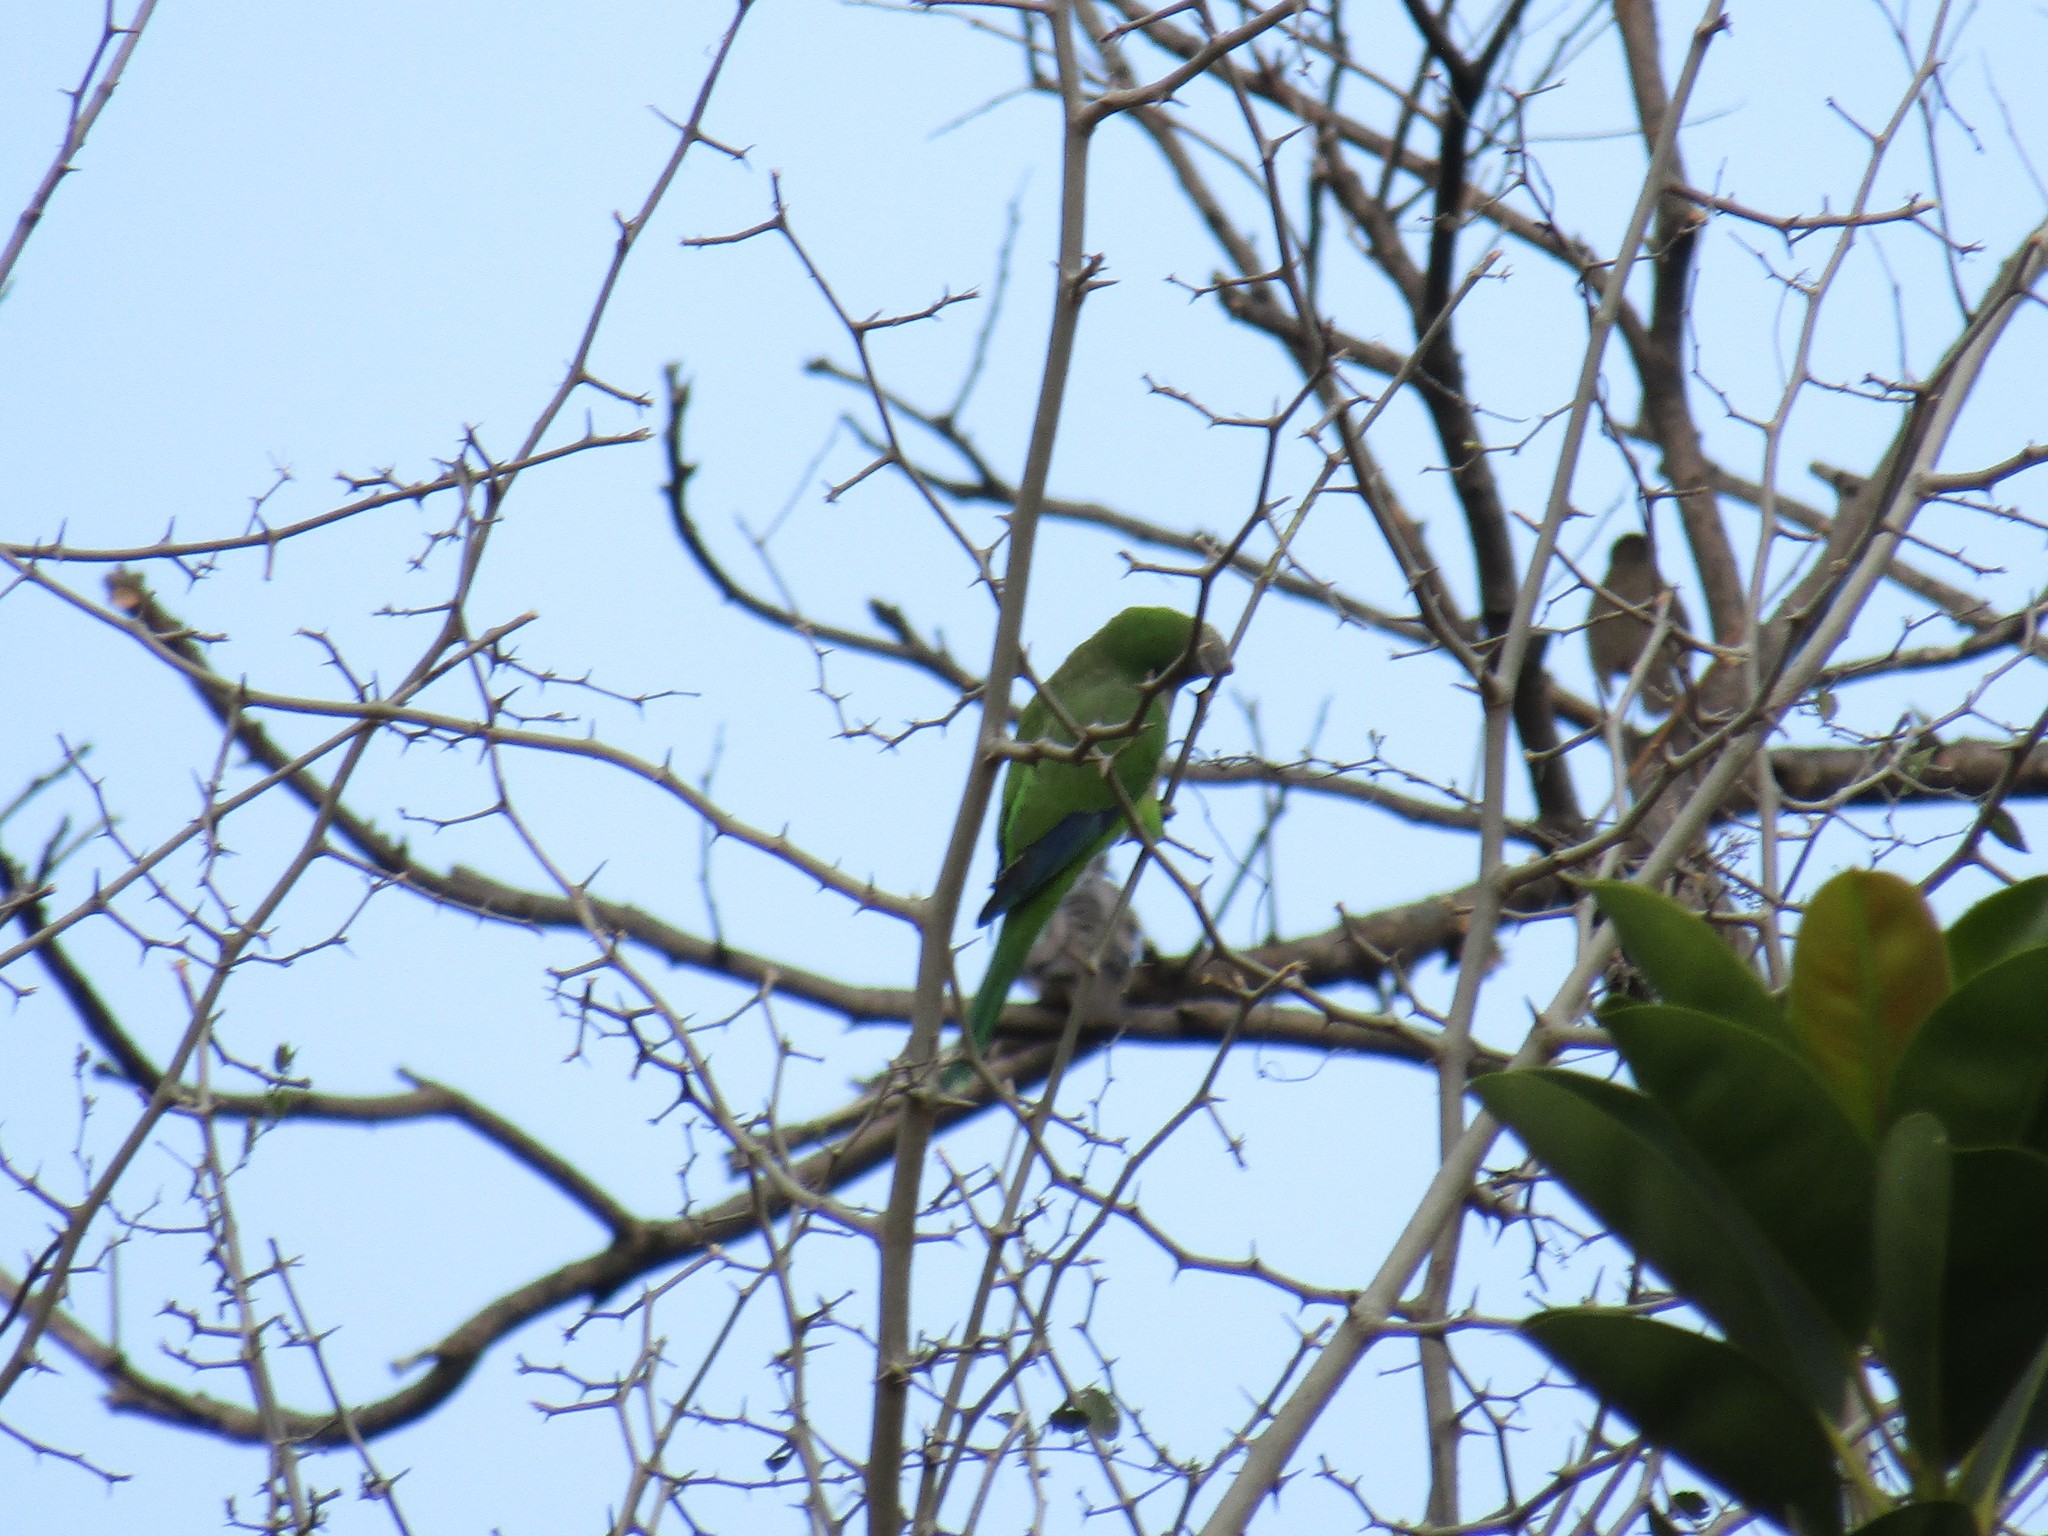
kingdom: Animalia
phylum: Chordata
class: Aves
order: Psittaciformes
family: Psittacidae
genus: Myiopsitta
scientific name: Myiopsitta monachus
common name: Monk parakeet
